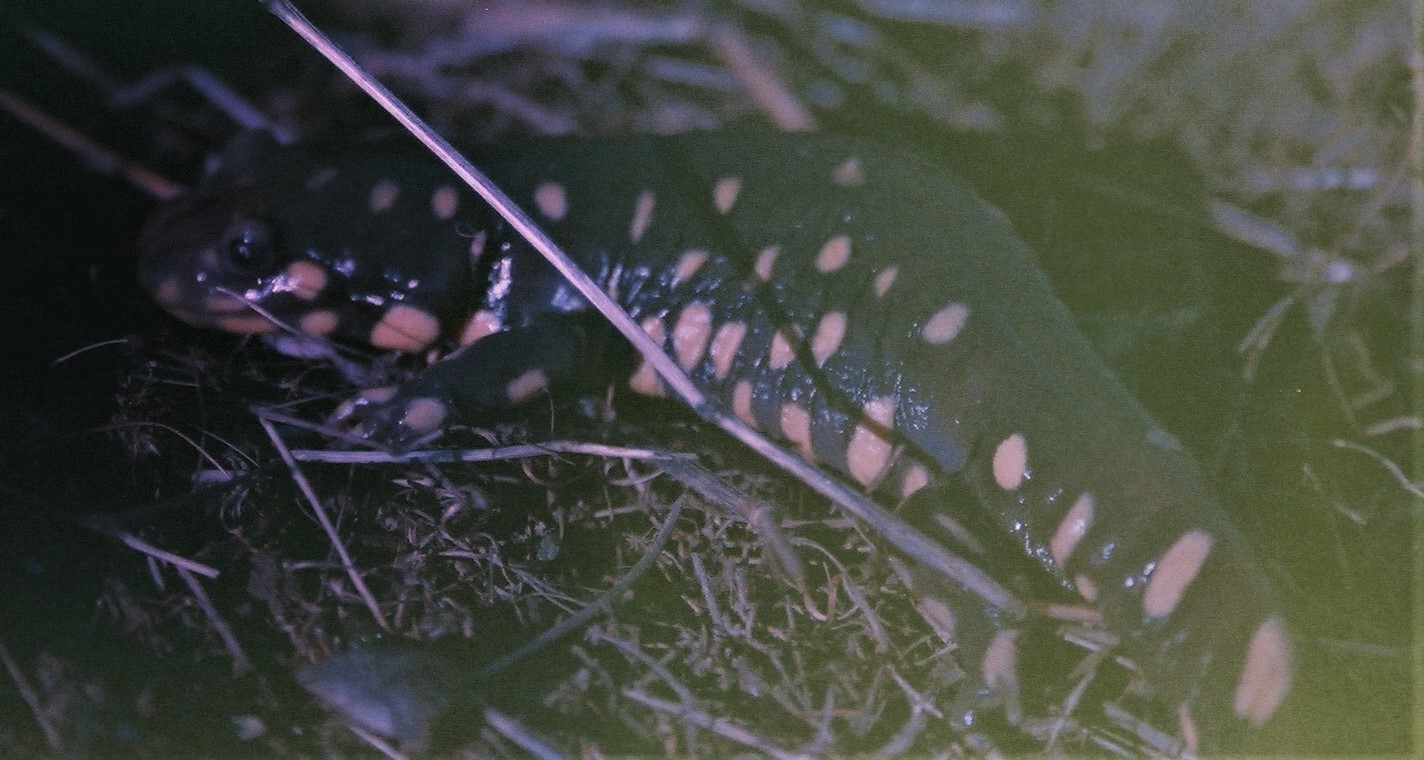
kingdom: Animalia
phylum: Chordata
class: Amphibia
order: Caudata
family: Ambystomatidae
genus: Ambystoma
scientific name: Ambystoma californiense
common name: California tiger salamander
